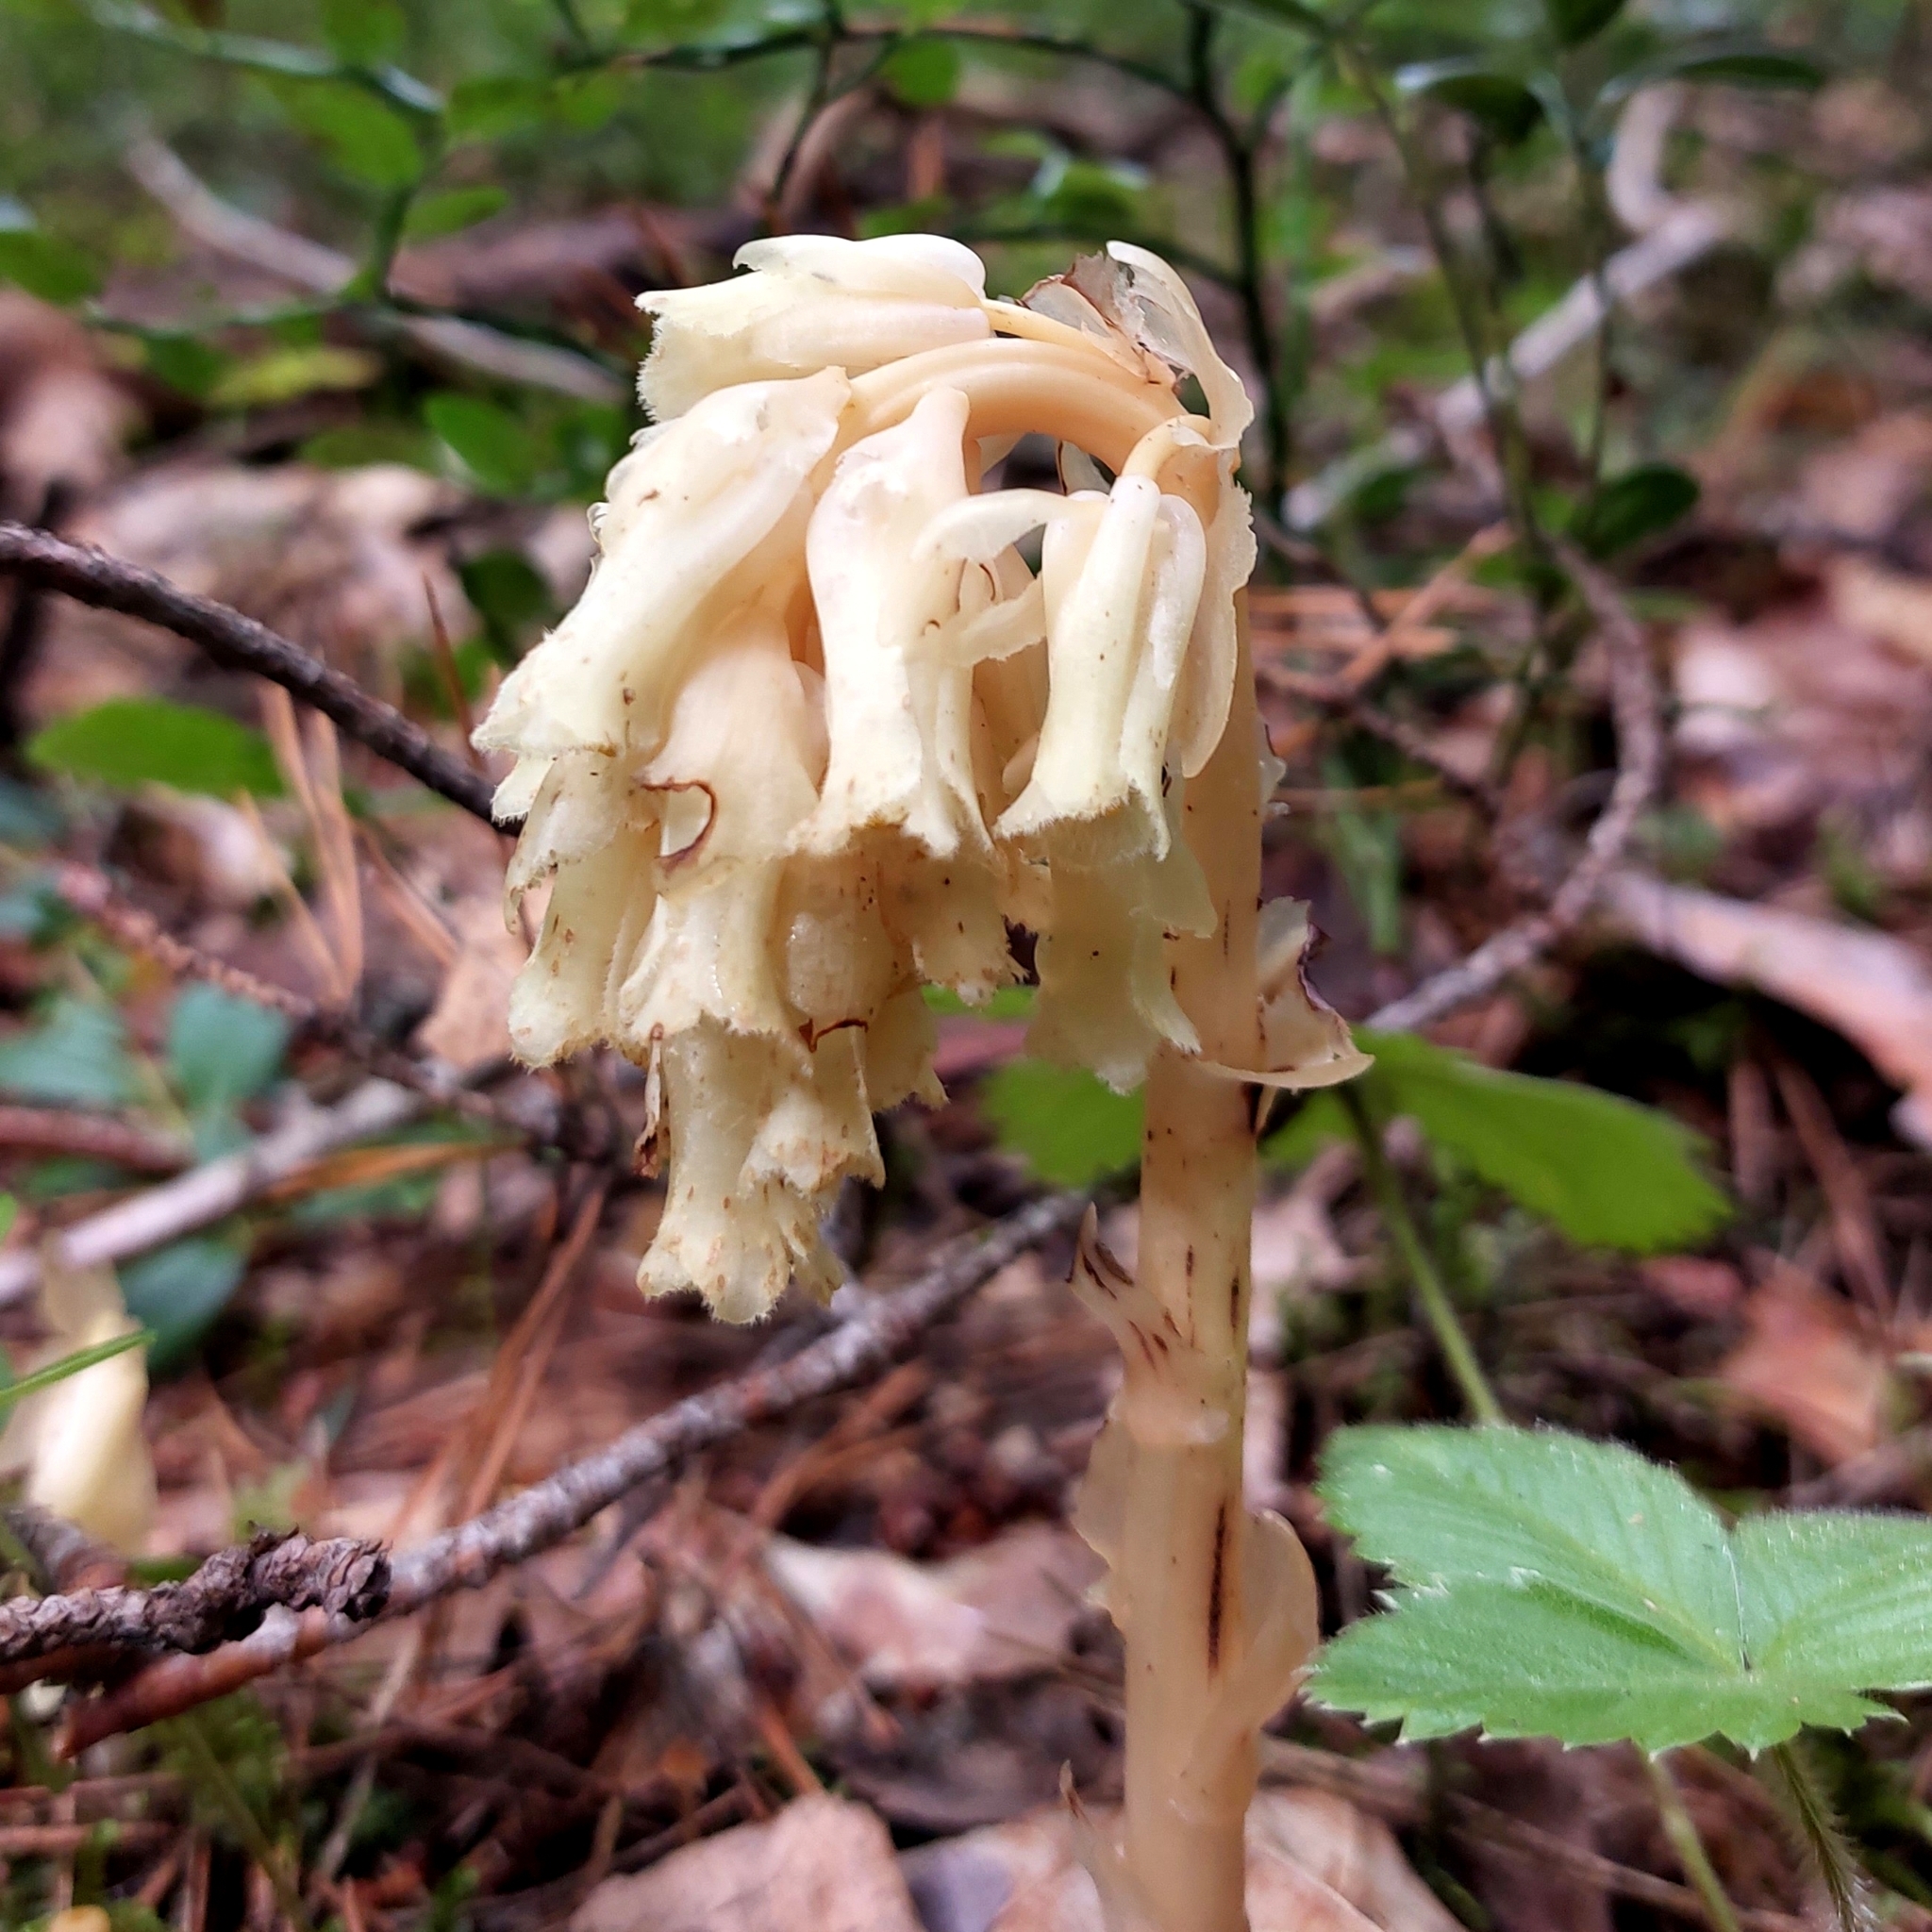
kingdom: Plantae
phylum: Tracheophyta
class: Magnoliopsida
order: Ericales
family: Ericaceae
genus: Hypopitys
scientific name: Hypopitys monotropa
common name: Yellow bird's-nest
